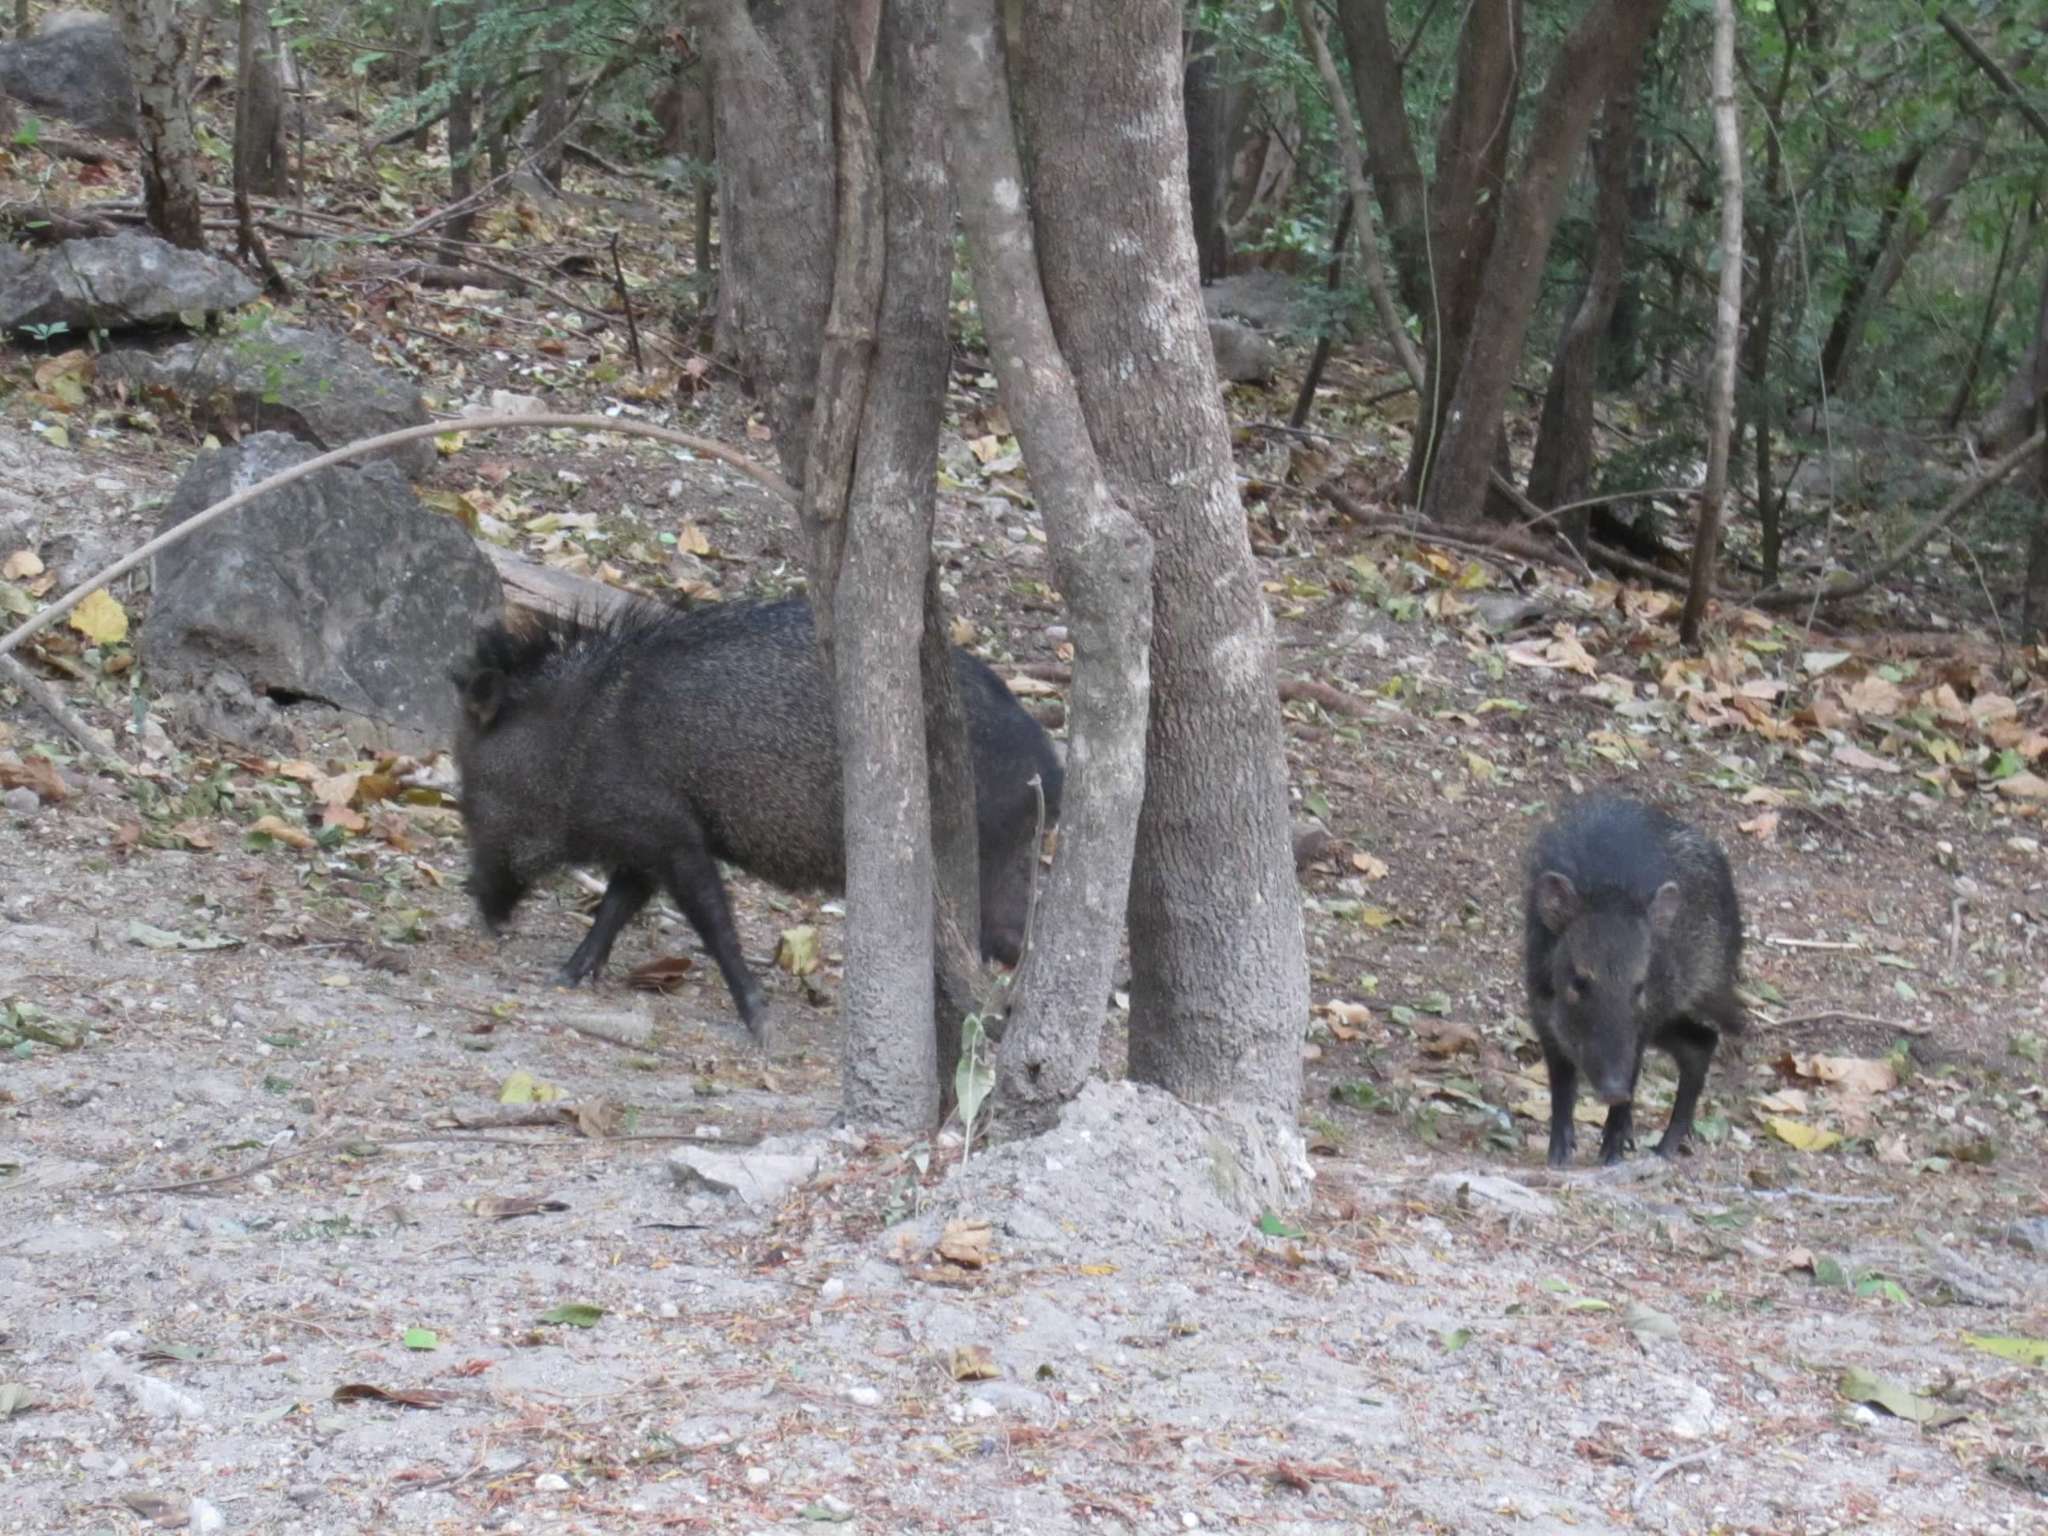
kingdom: Animalia
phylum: Chordata
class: Mammalia
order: Artiodactyla
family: Tayassuidae
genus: Pecari
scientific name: Pecari tajacu
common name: Collared peccary
